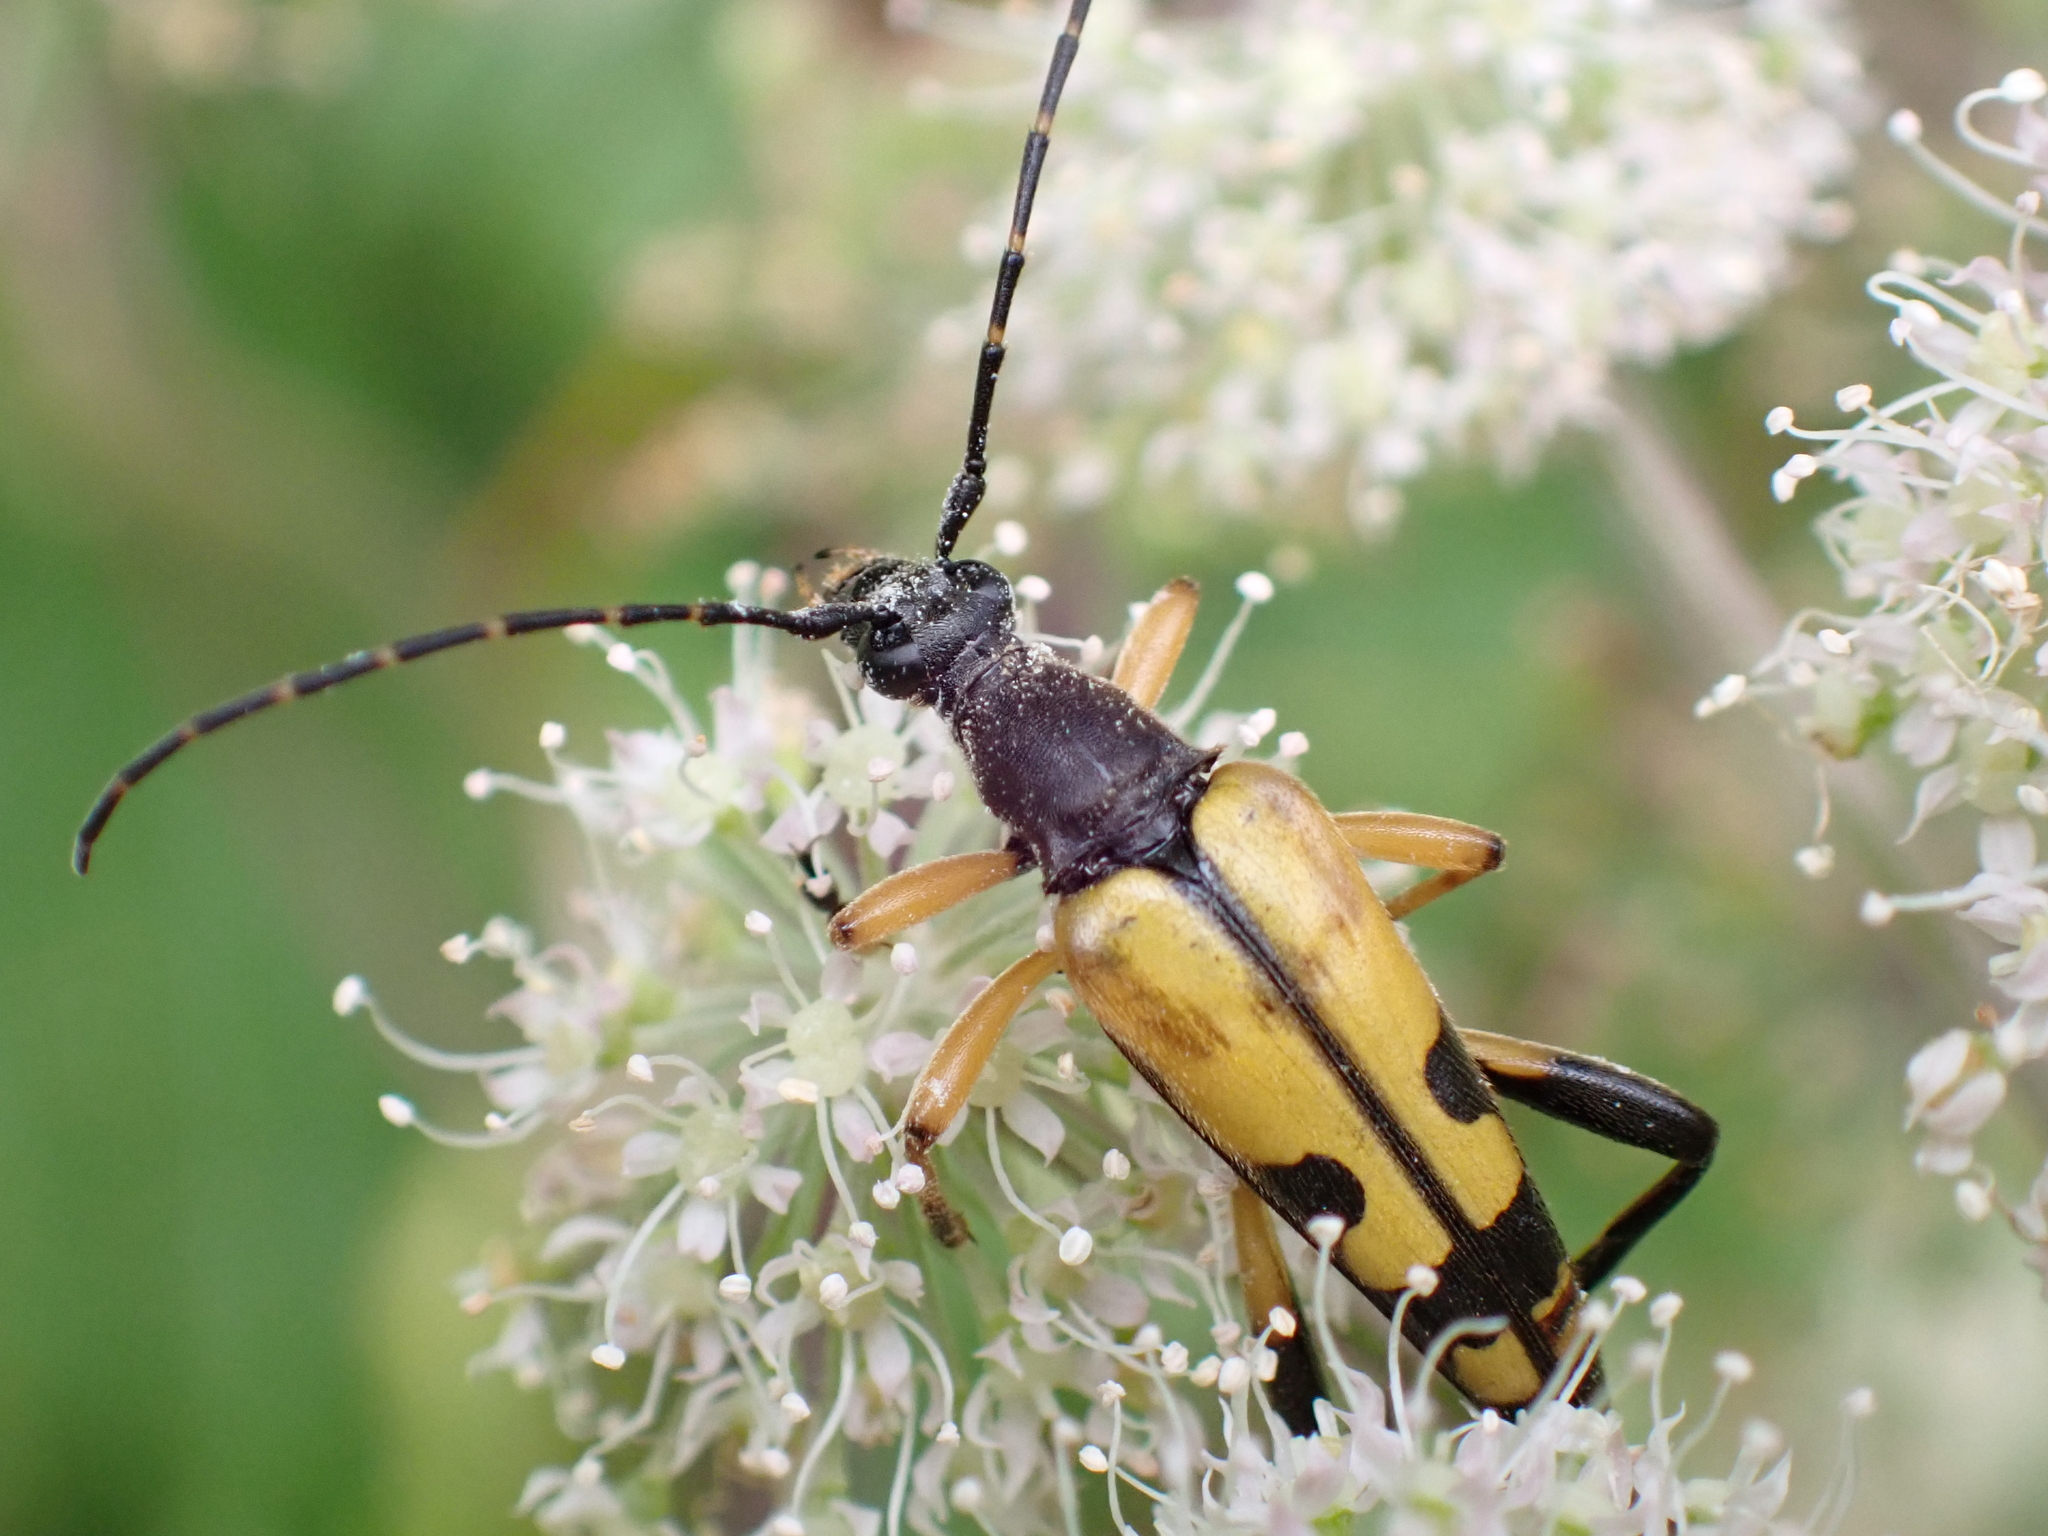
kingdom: Animalia
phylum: Arthropoda
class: Insecta
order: Coleoptera
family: Cerambycidae
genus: Rutpela
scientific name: Rutpela maculata
